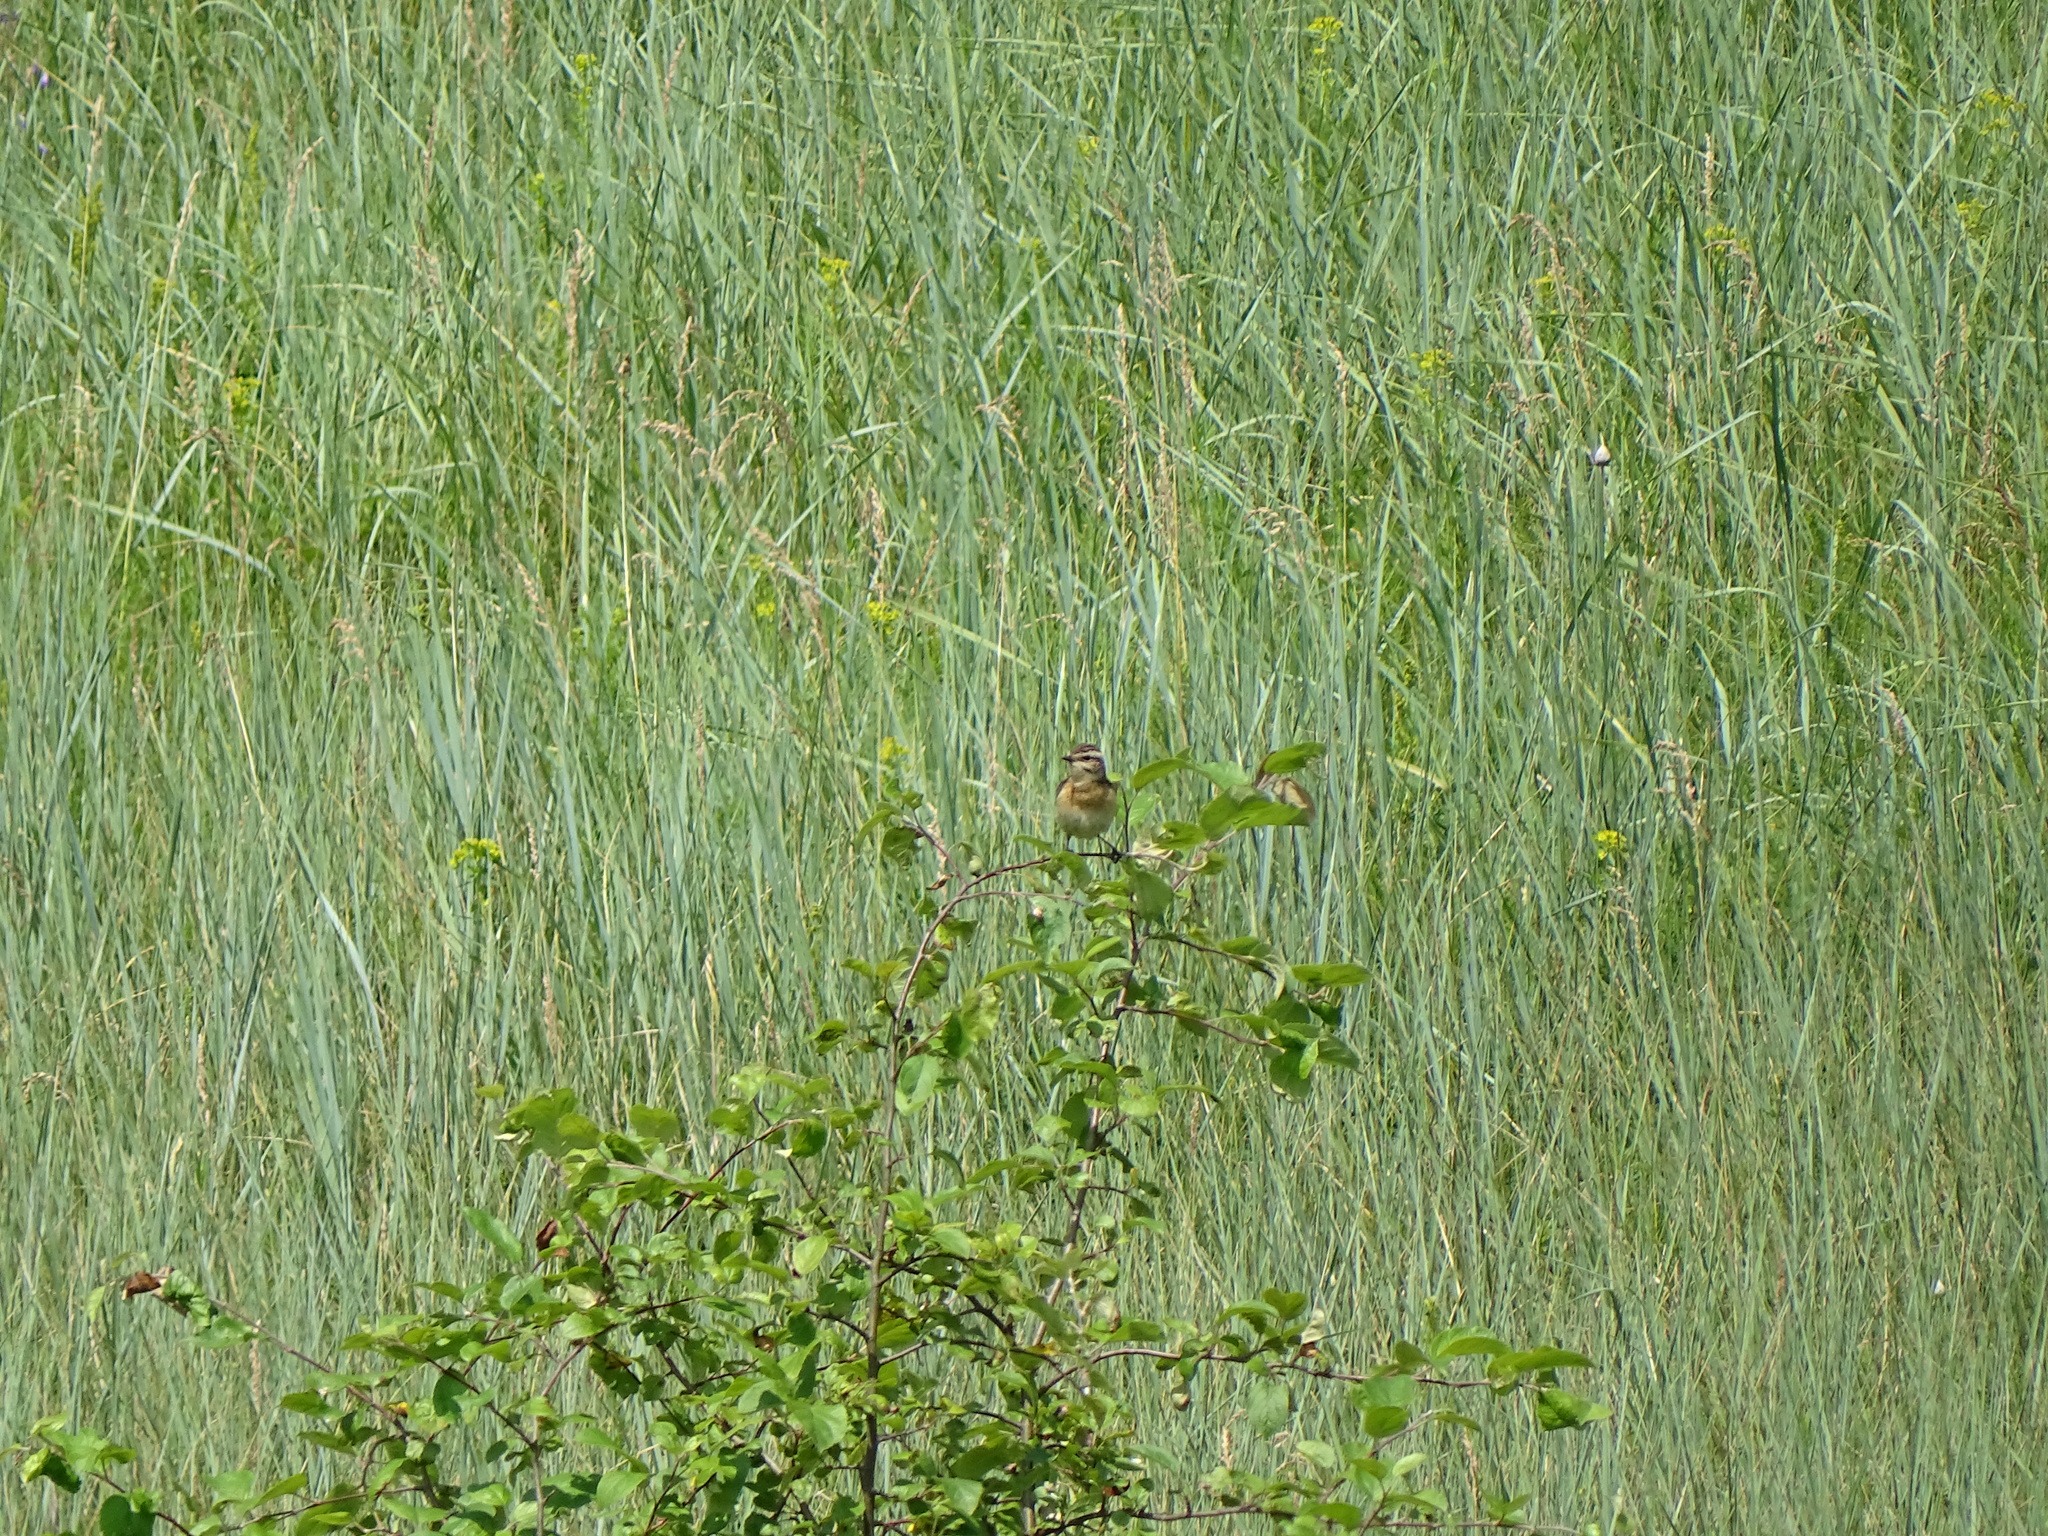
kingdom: Animalia
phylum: Chordata
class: Aves
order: Passeriformes
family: Muscicapidae
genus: Saxicola
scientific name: Saxicola rubetra
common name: Whinchat
